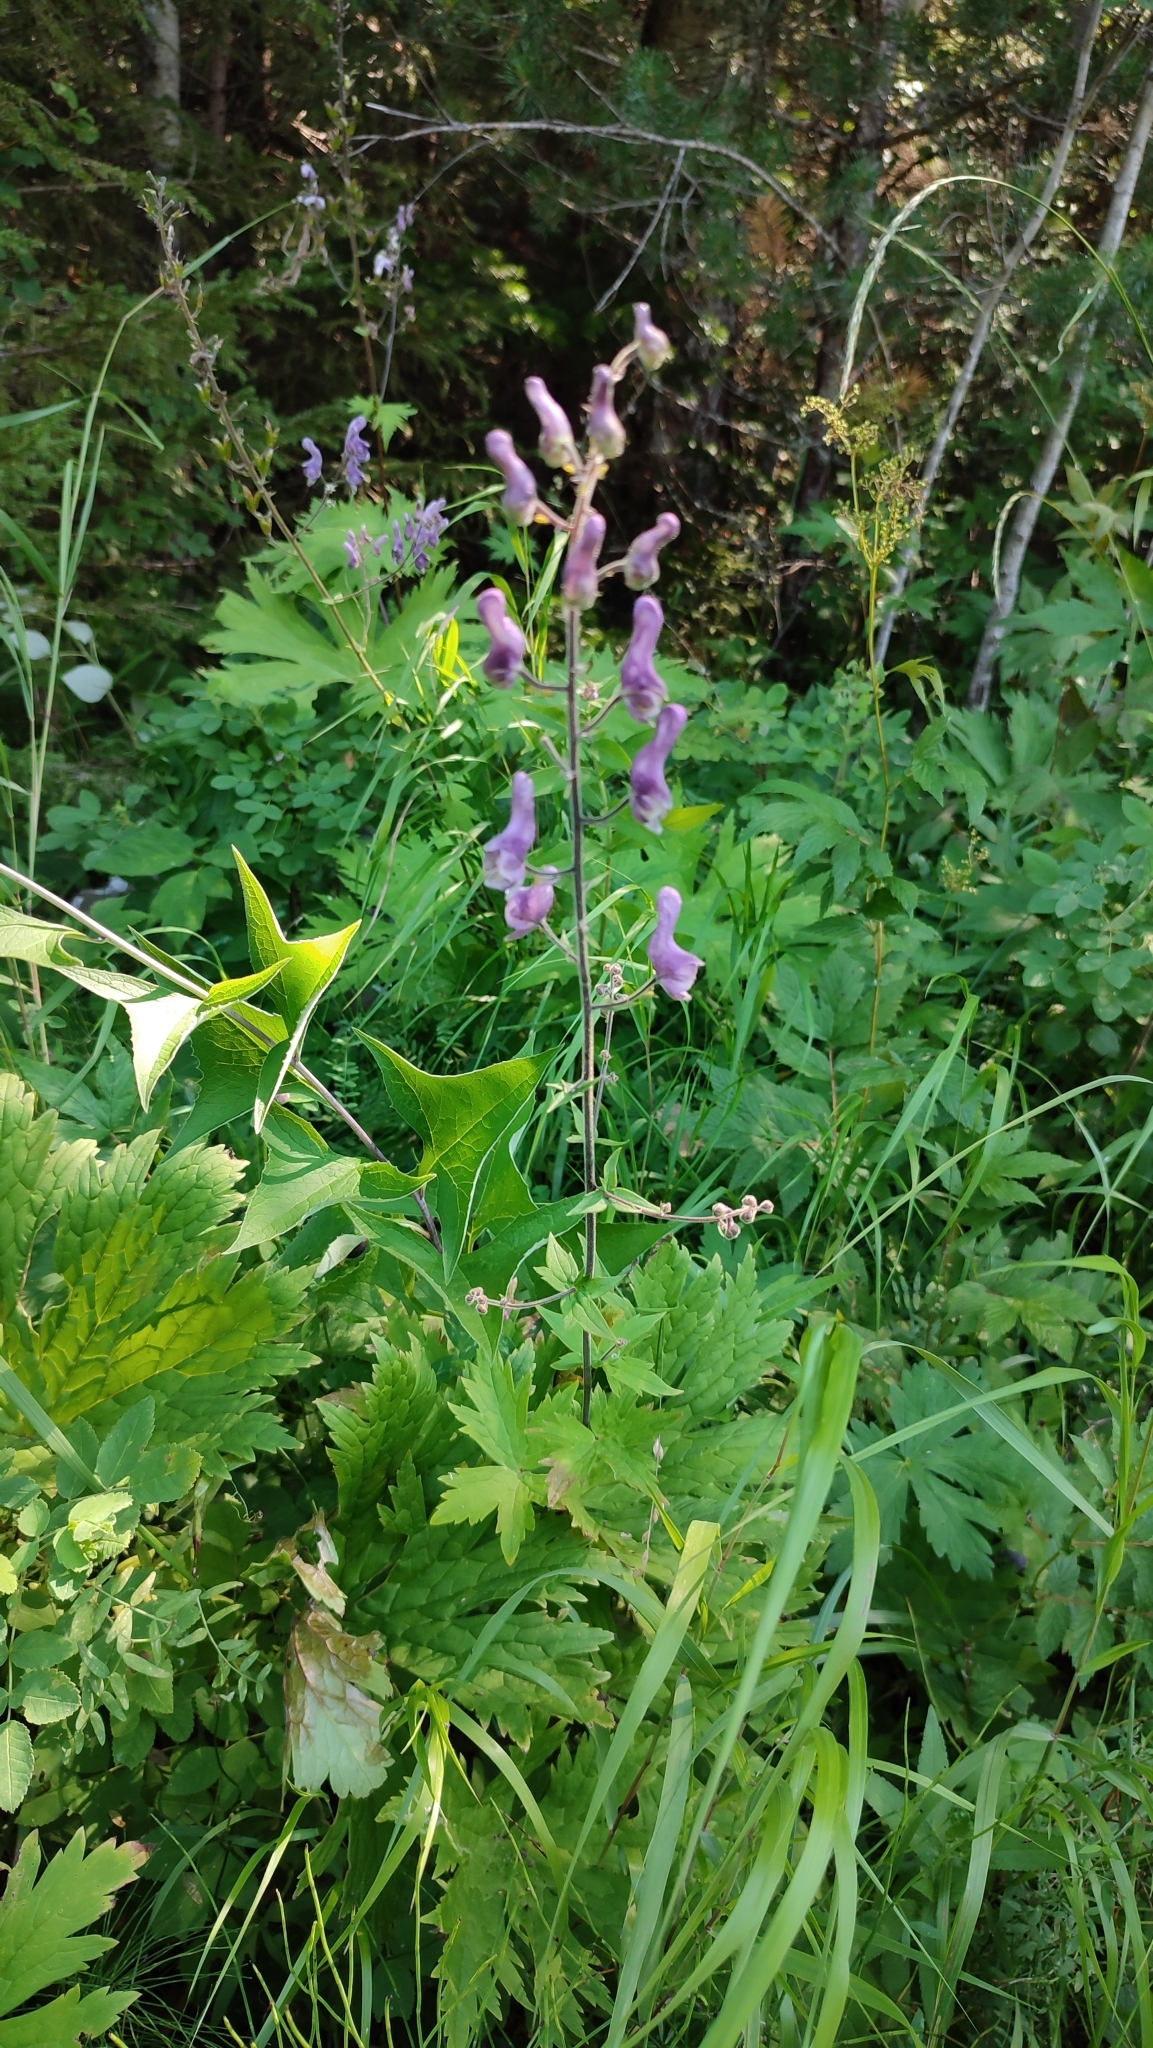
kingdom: Plantae
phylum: Tracheophyta
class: Magnoliopsida
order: Ranunculales
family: Ranunculaceae
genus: Aconitum
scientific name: Aconitum septentrionale
